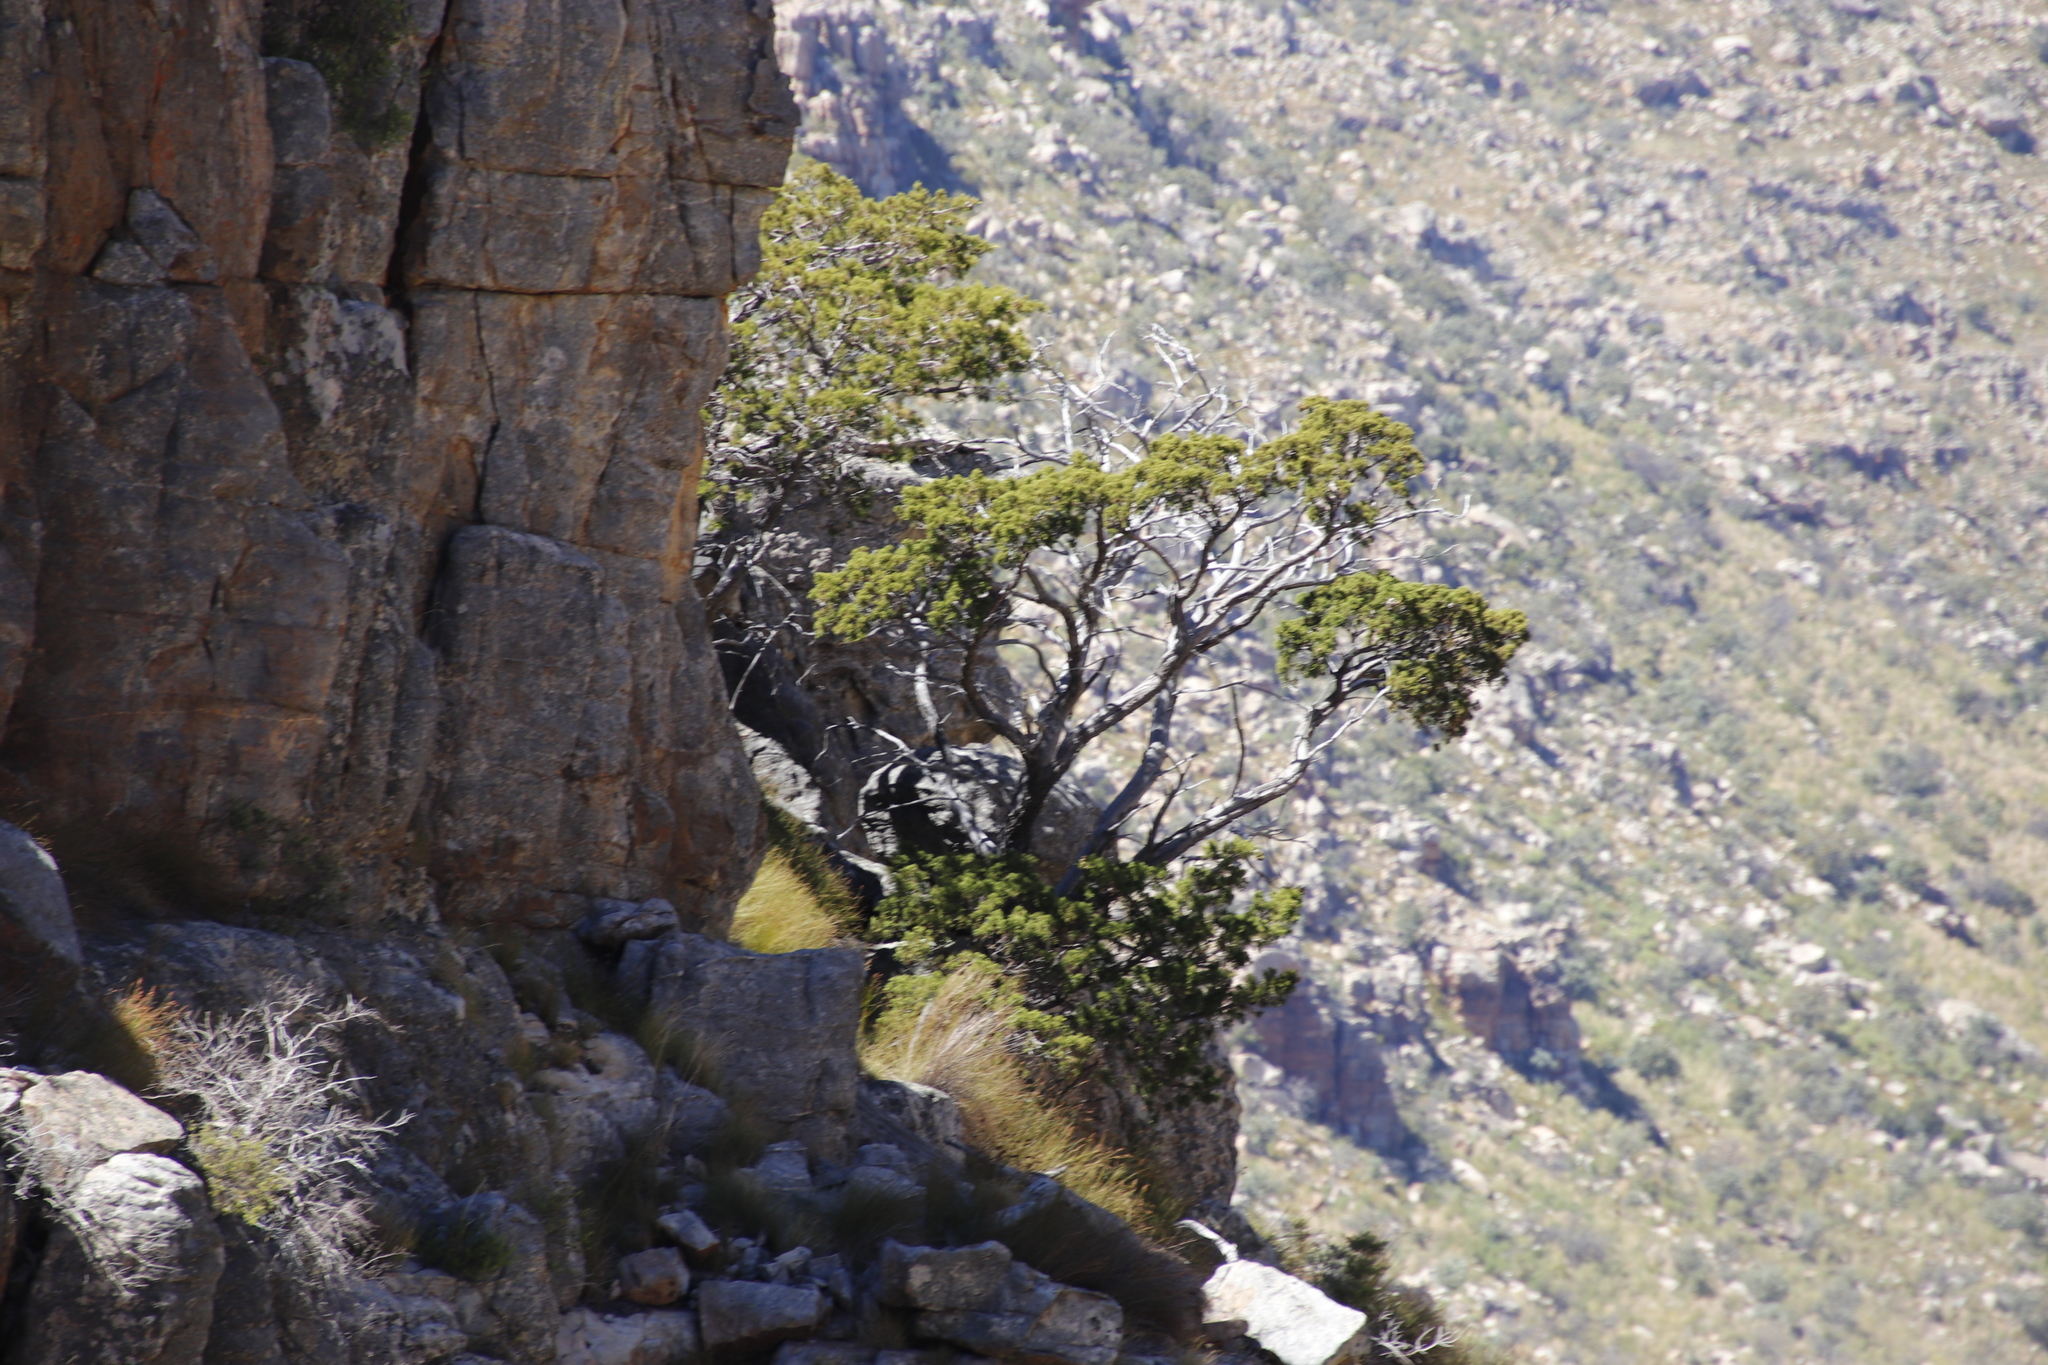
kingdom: Plantae
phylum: Tracheophyta
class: Pinopsida
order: Pinales
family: Cupressaceae
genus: Widdringtonia
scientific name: Widdringtonia nodiflora
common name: Cape cypress
